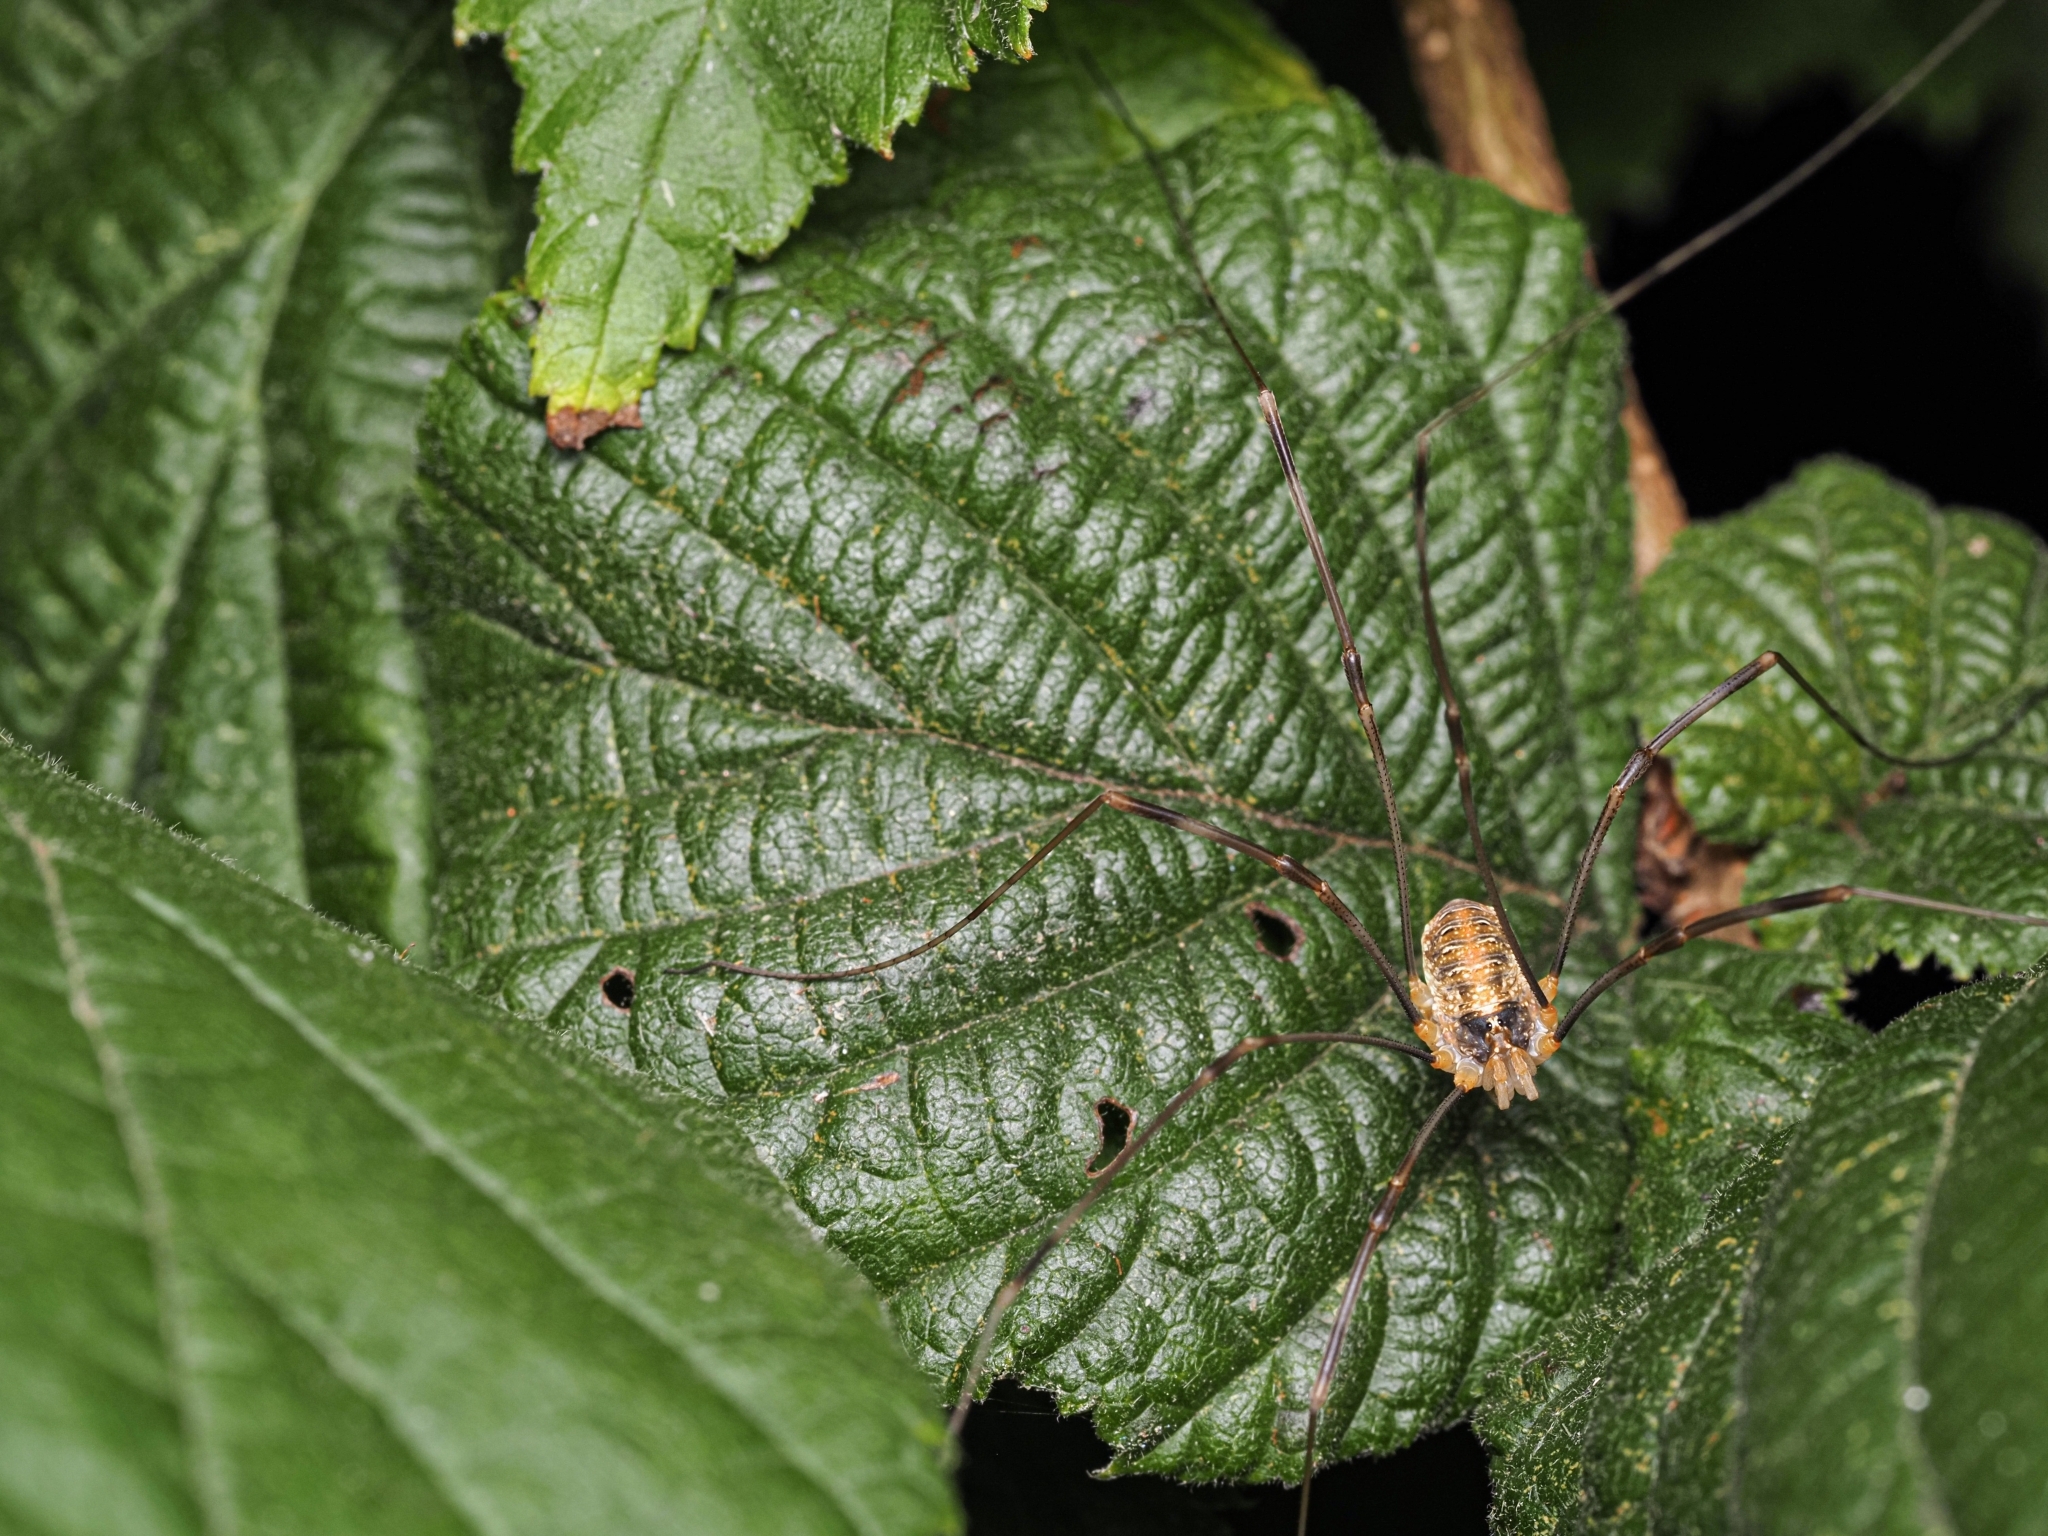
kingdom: Animalia
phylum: Arthropoda
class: Arachnida
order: Opiliones
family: Phalangiidae
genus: Opilio
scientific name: Opilio canestrinii
